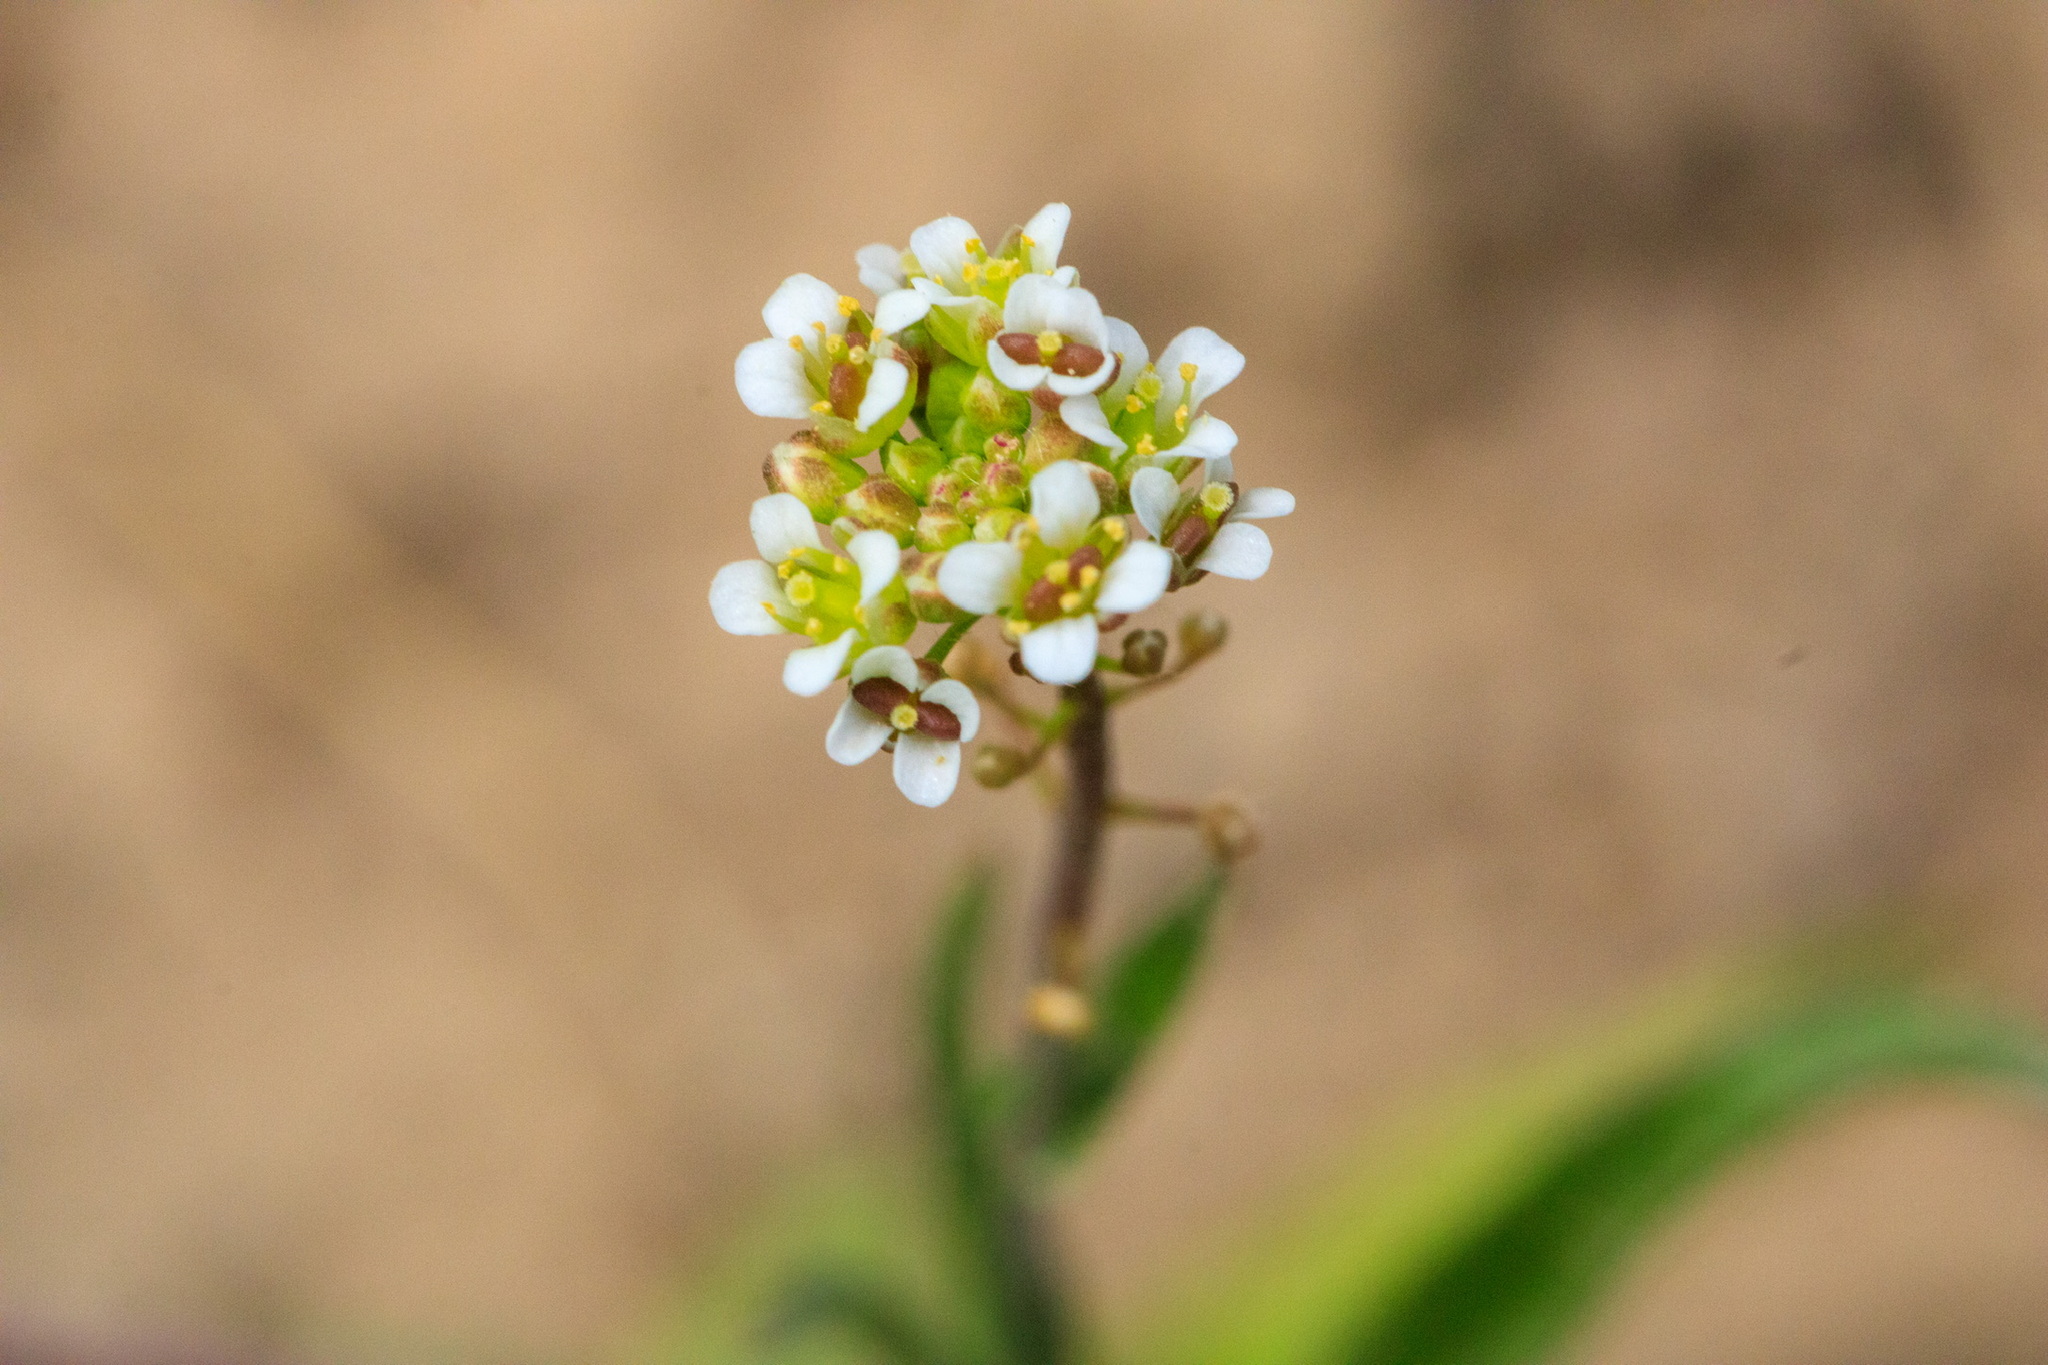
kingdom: Plantae
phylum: Tracheophyta
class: Magnoliopsida
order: Brassicales
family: Brassicaceae
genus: Capsella
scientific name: Capsella bursa-pastoris
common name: Shepherd's purse
